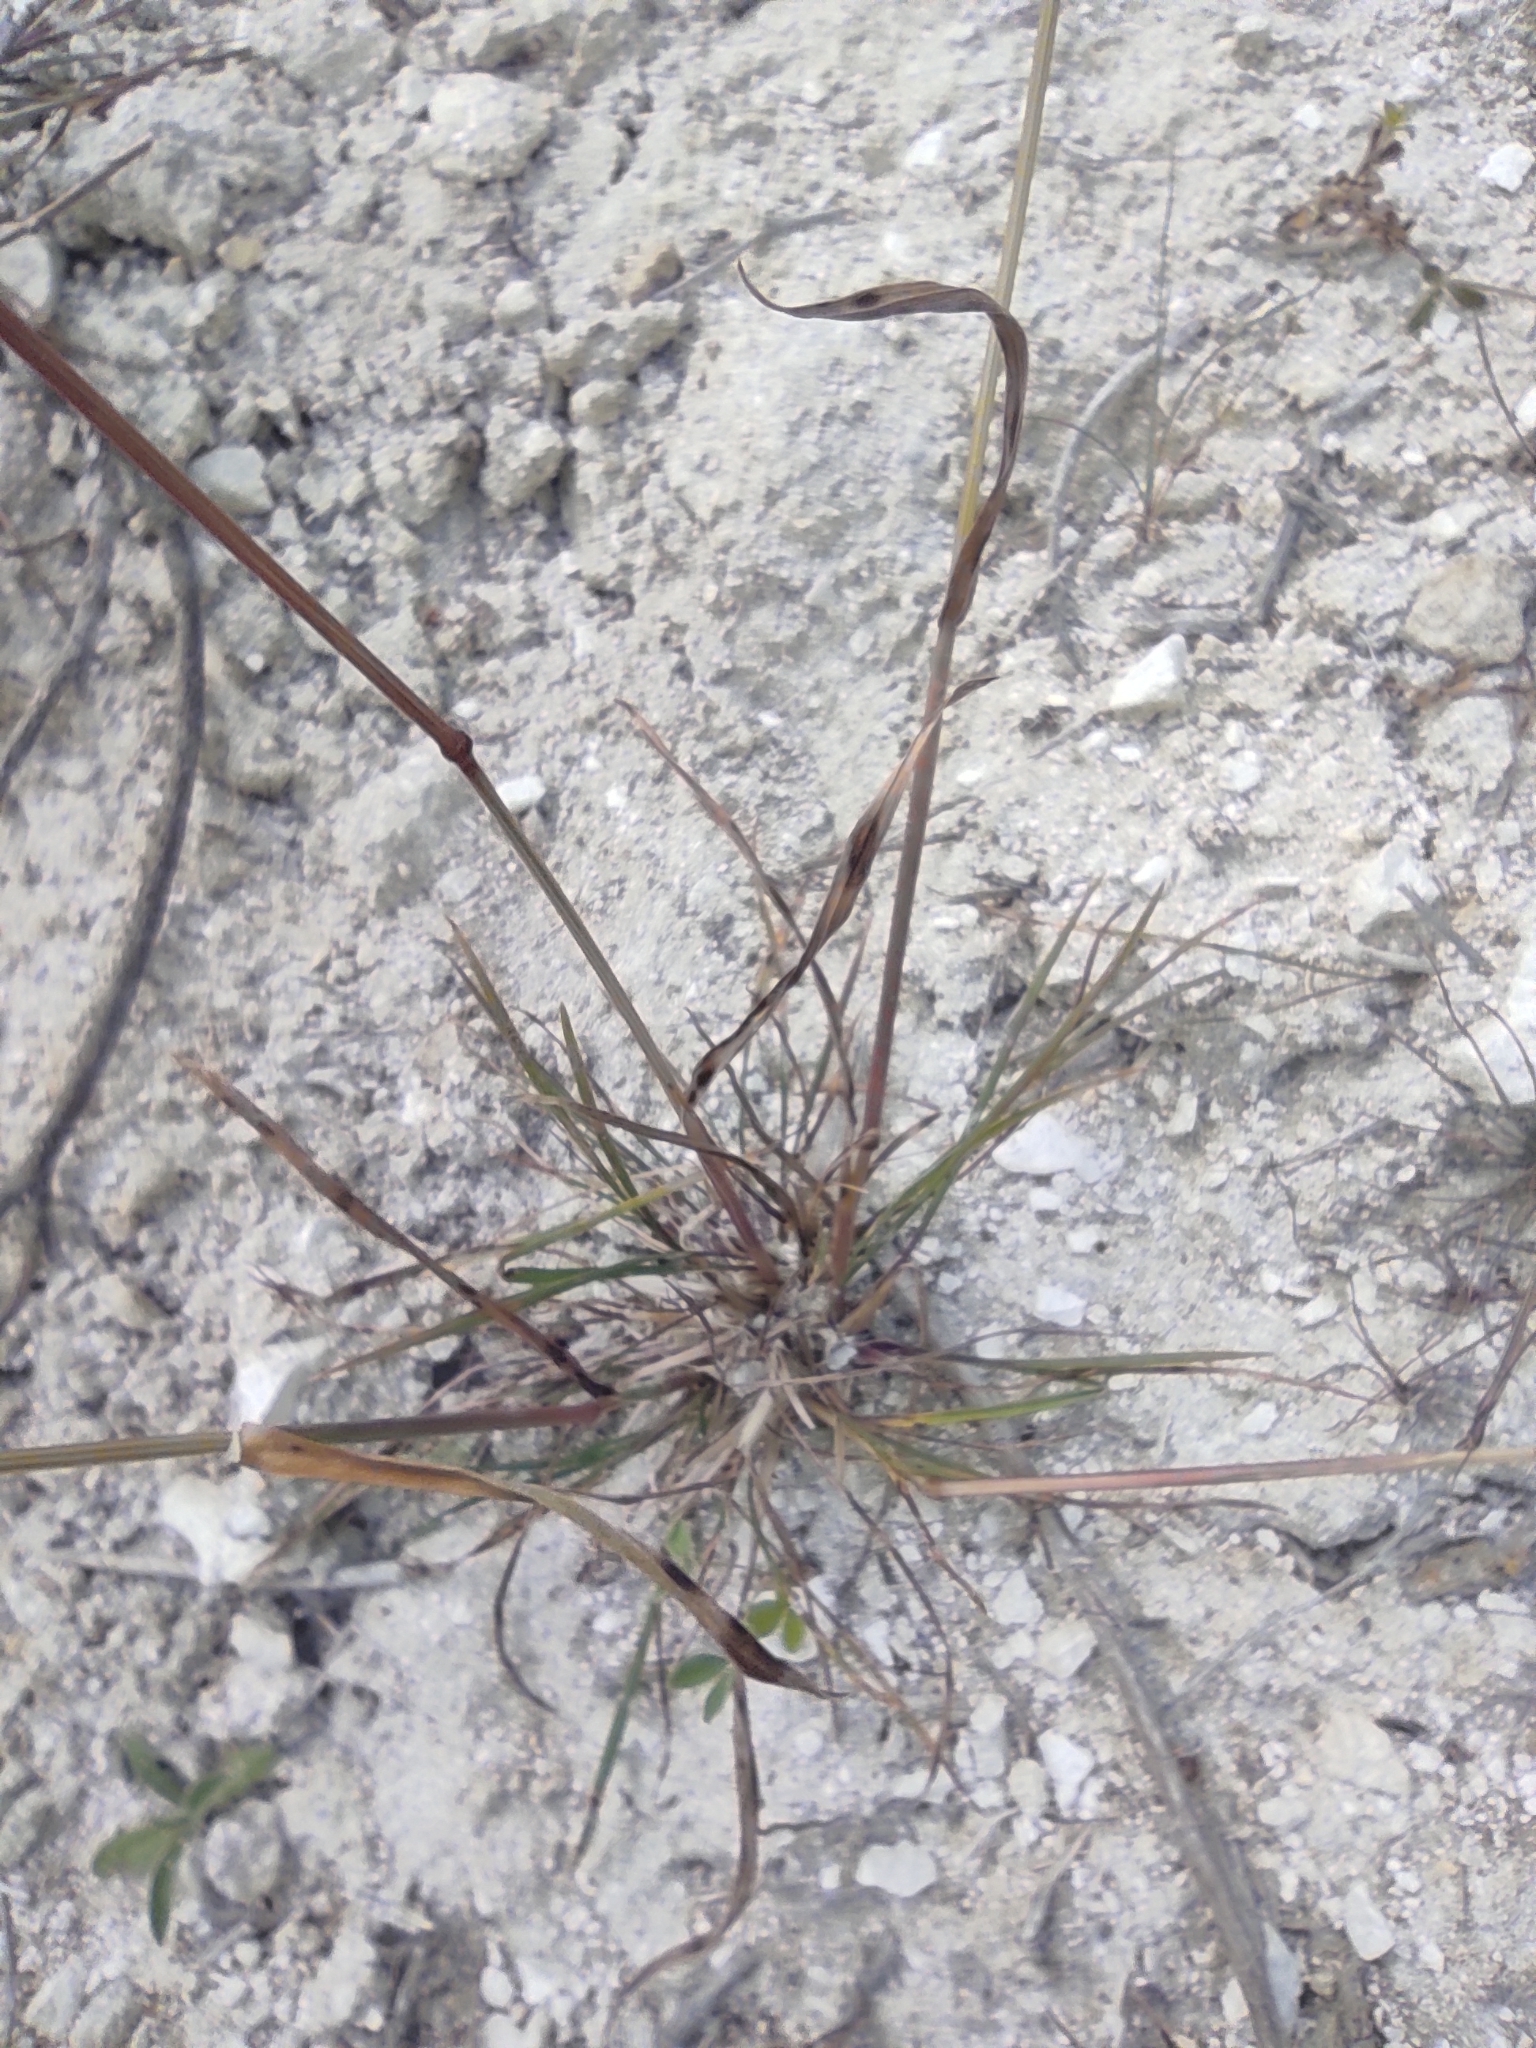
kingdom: Plantae
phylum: Tracheophyta
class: Liliopsida
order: Poales
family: Poaceae
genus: Poa
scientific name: Poa bulbosa
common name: Bulbous bluegrass
